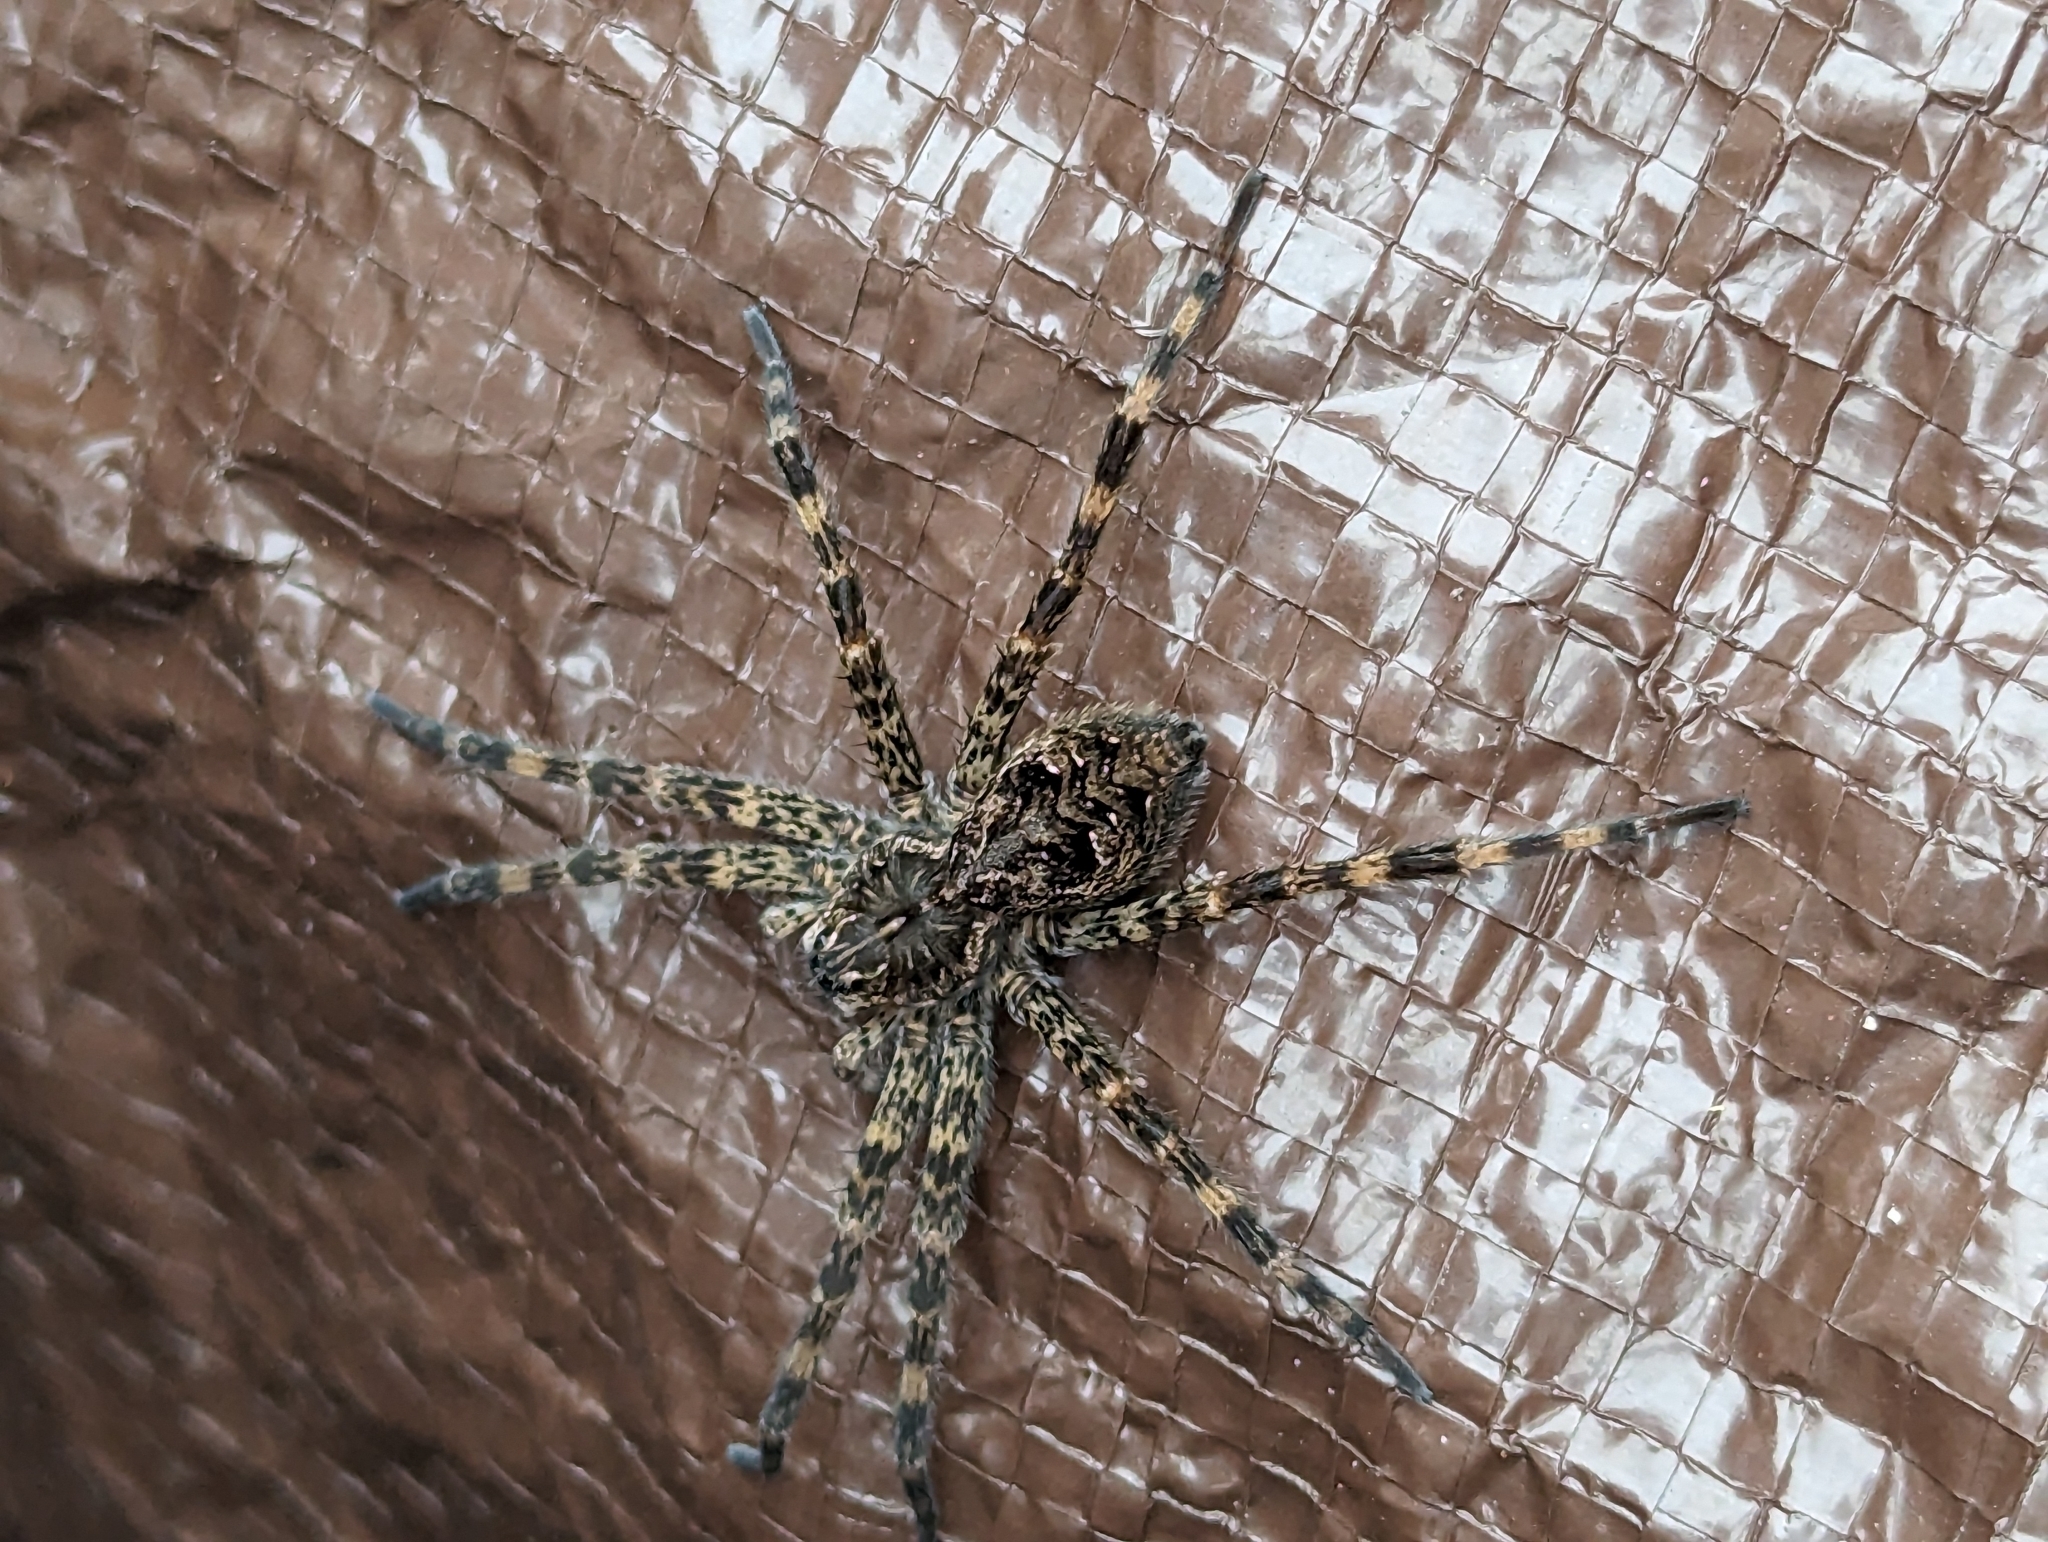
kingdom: Animalia
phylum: Arthropoda
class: Arachnida
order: Araneae
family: Pisauridae
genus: Dolomedes
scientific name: Dolomedes tenebrosus
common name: Dark fishing spider
